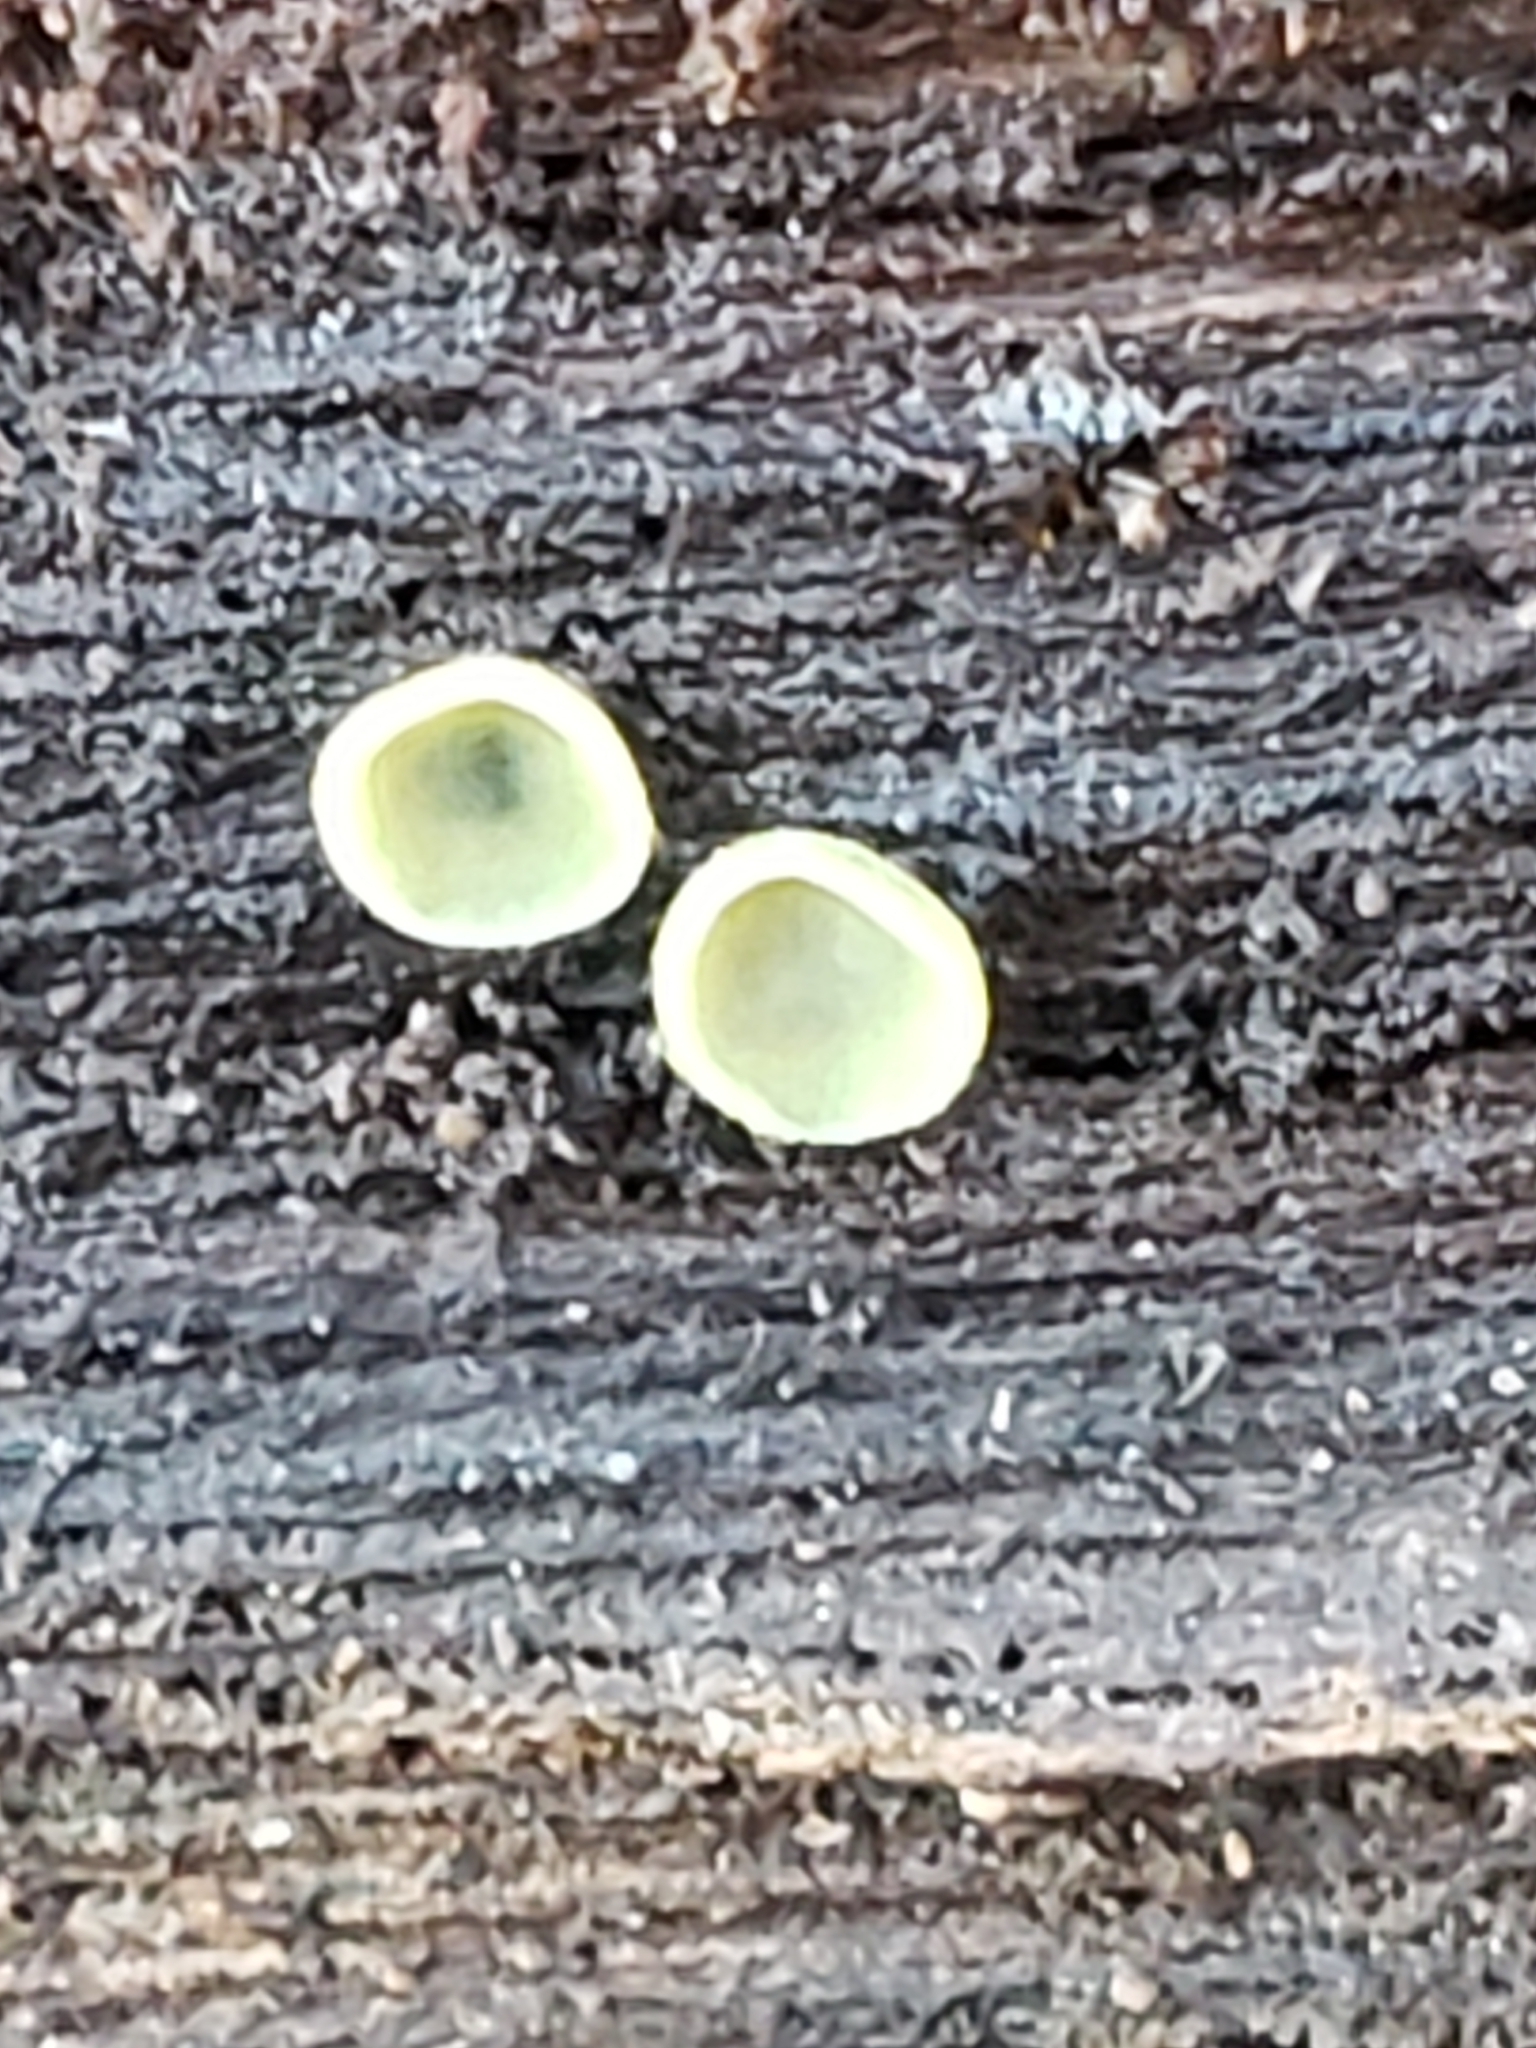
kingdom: Fungi
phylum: Ascomycota
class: Leotiomycetes
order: Helotiales
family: Chlorospleniaceae
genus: Chlorosplenium
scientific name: Chlorosplenium chlora
